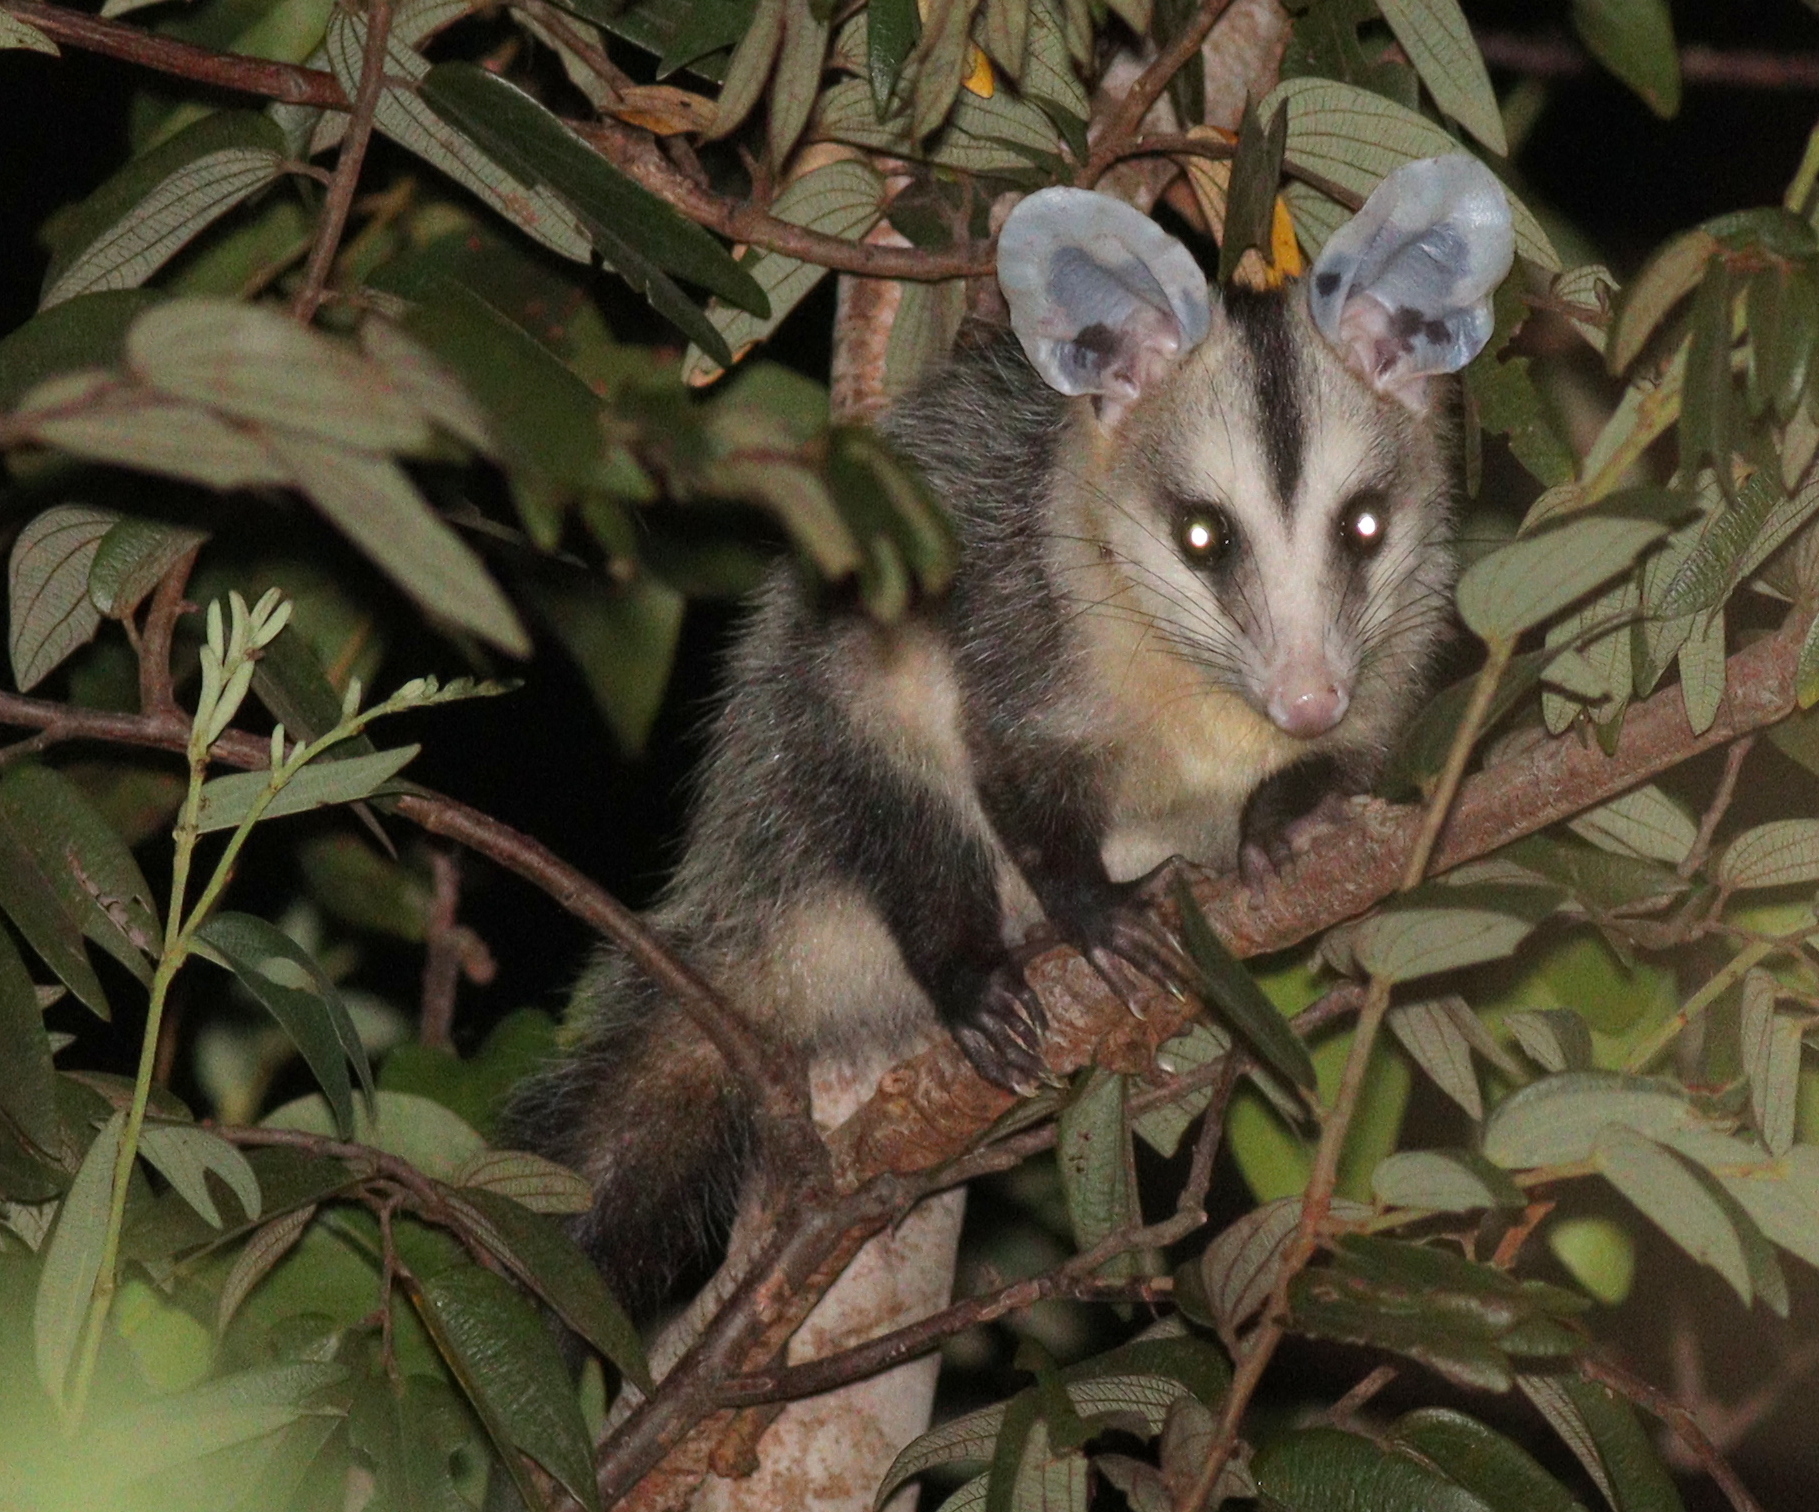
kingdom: Animalia
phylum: Chordata
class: Mammalia
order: Didelphimorphia
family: Didelphidae
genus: Didelphis
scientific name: Didelphis albiventris
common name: White-eared opossum
